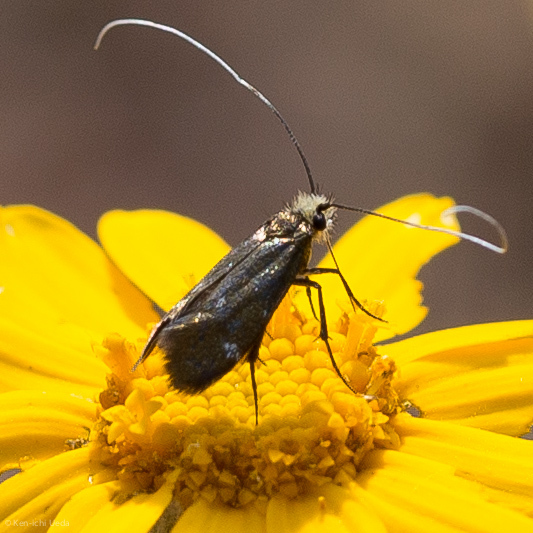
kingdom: Animalia
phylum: Arthropoda
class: Insecta
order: Lepidoptera
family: Adelidae
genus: Adela
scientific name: Adela flammeusella
